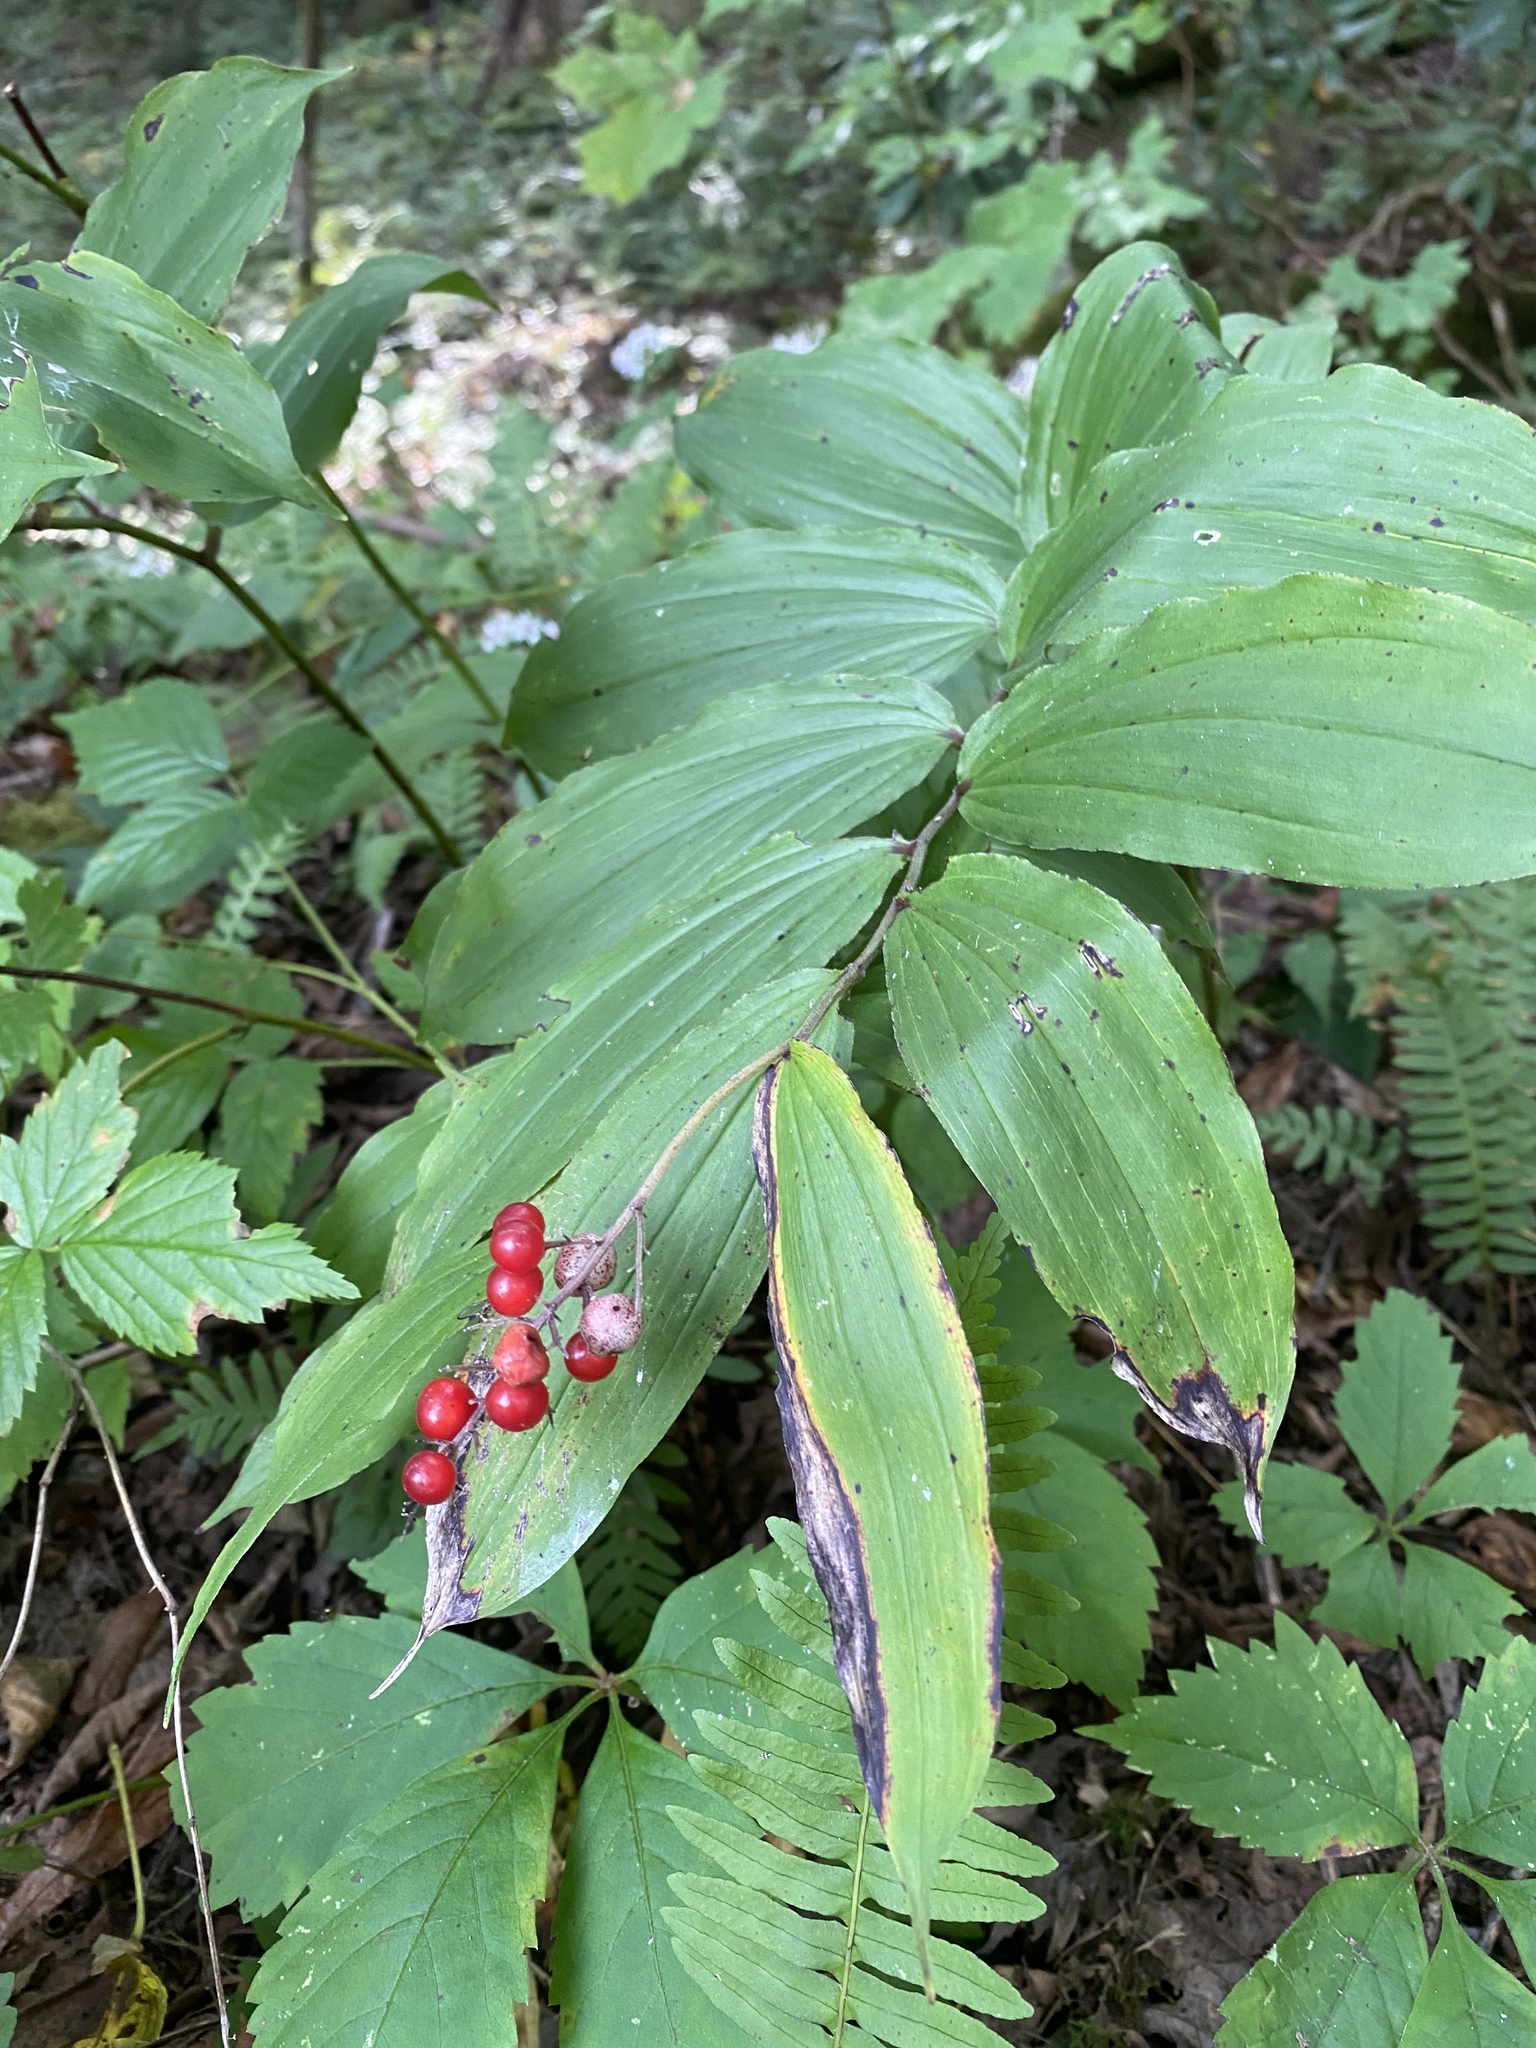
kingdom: Plantae
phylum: Tracheophyta
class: Liliopsida
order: Asparagales
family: Asparagaceae
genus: Maianthemum
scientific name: Maianthemum racemosum
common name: False spikenard
